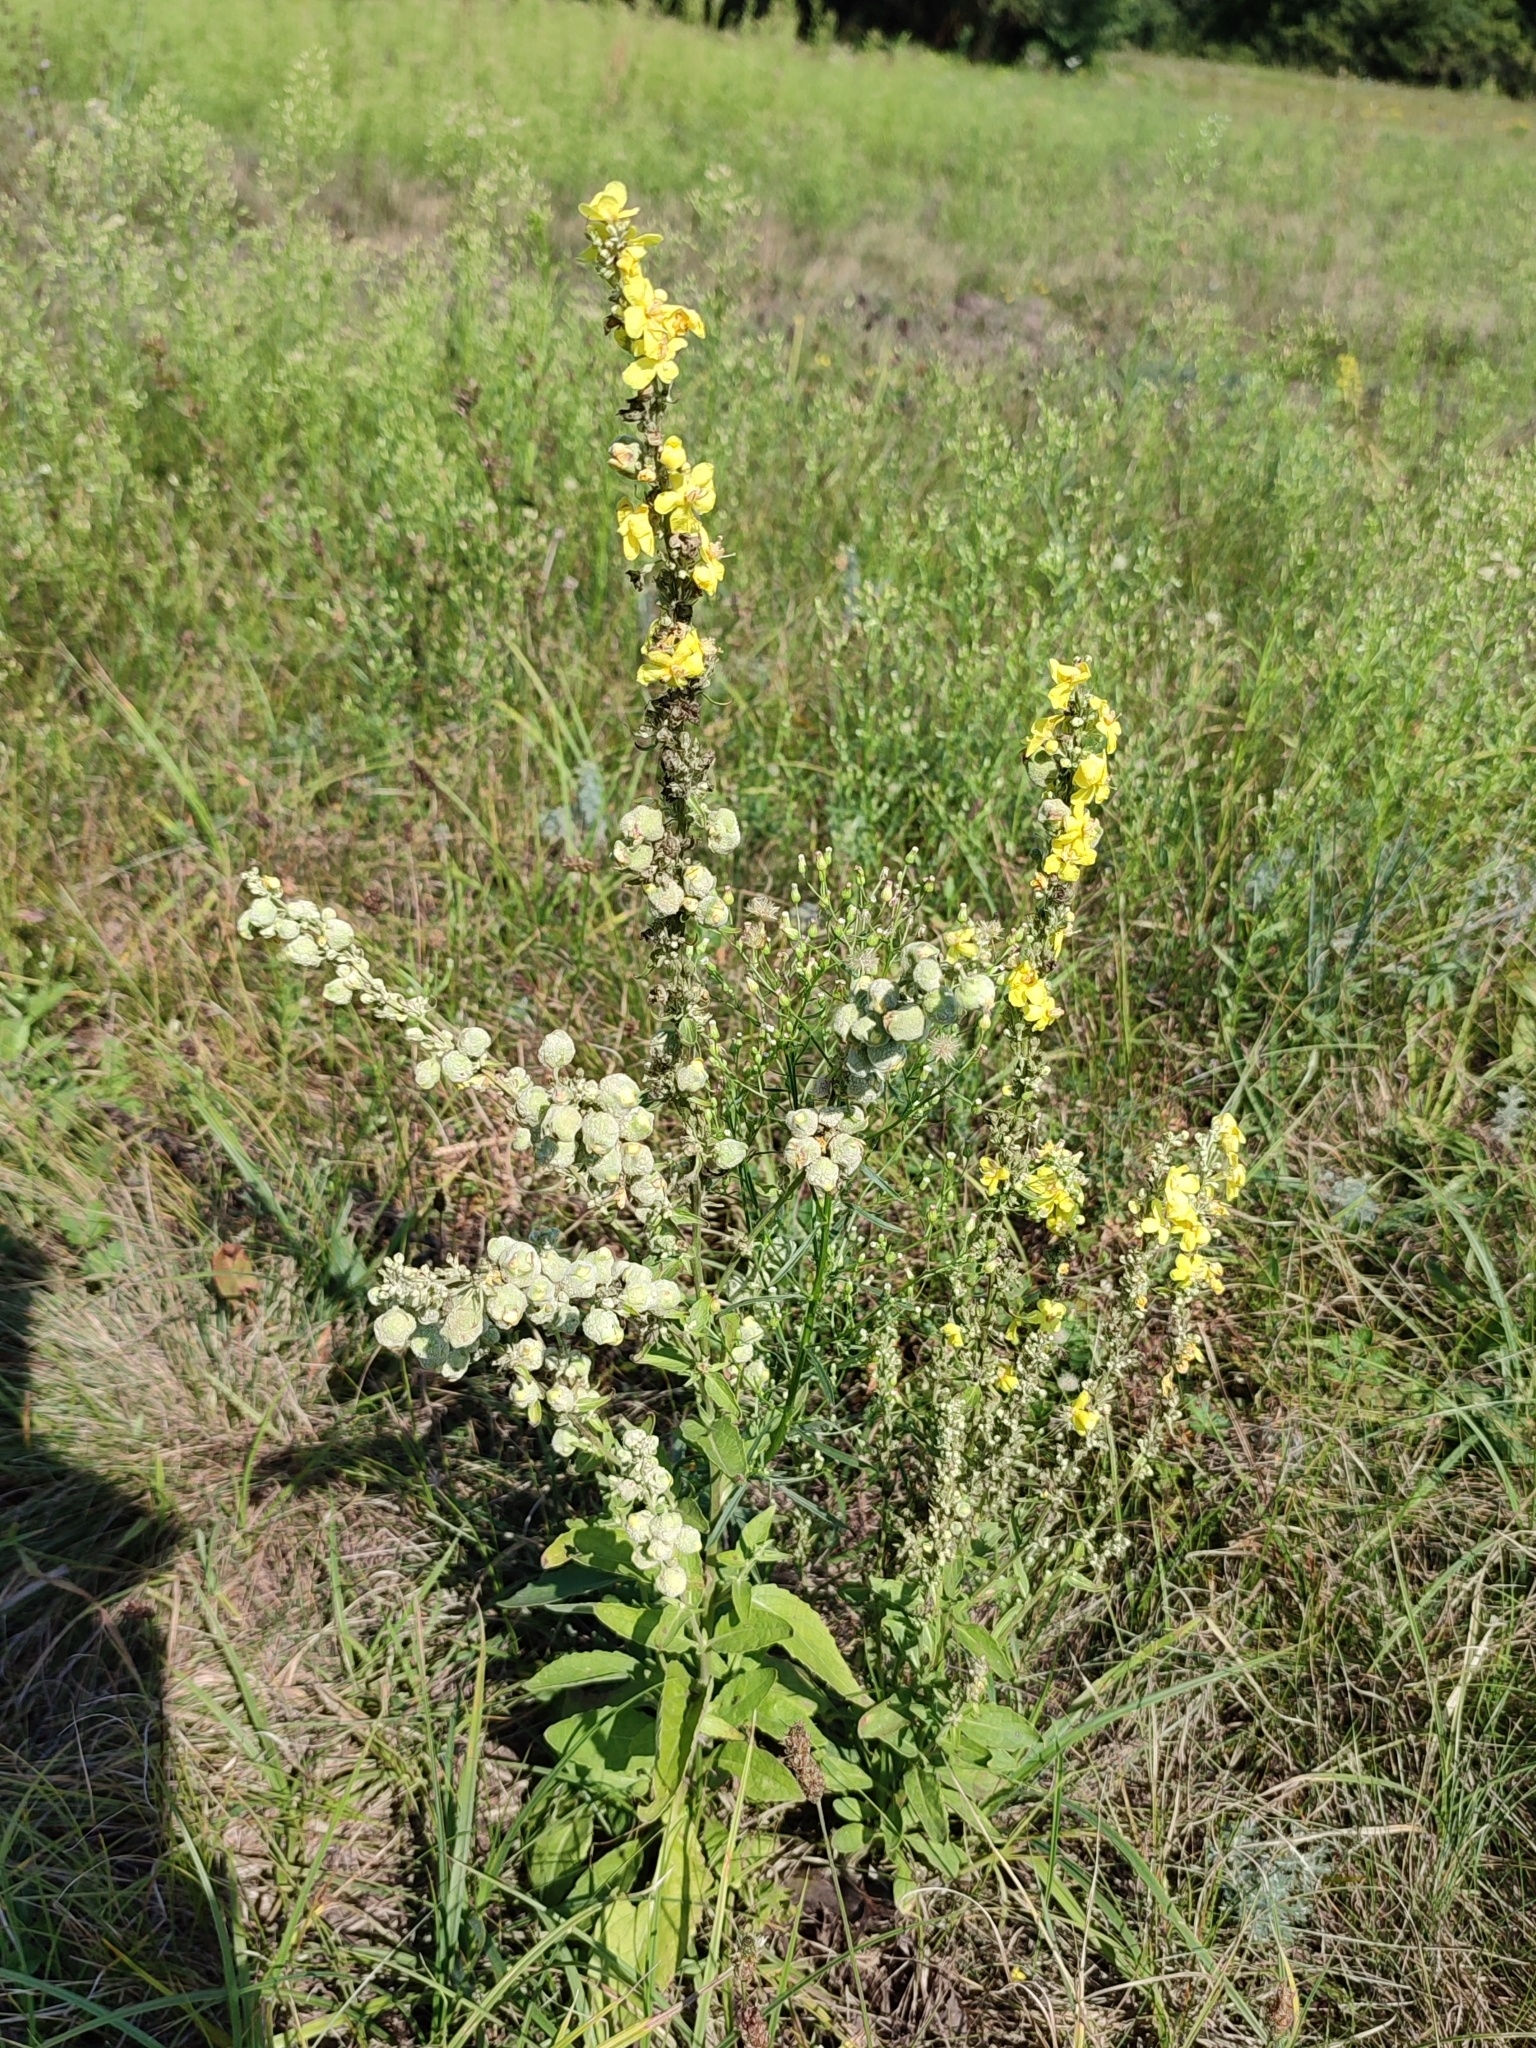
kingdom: Plantae
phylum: Tracheophyta
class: Magnoliopsida
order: Lamiales
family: Scrophulariaceae
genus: Verbascum
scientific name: Verbascum lychnitis
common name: White mullein
